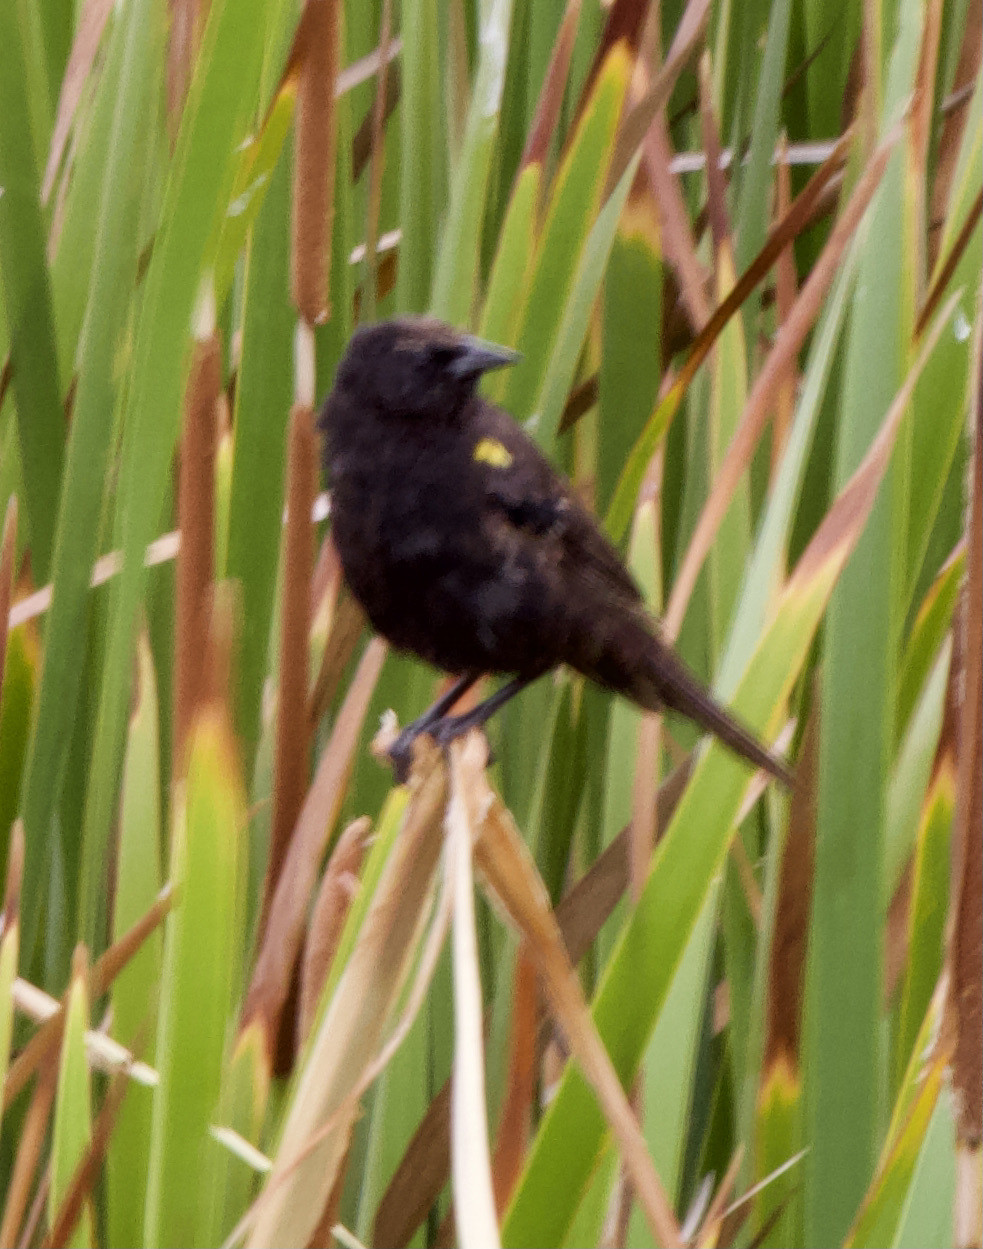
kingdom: Animalia
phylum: Chordata
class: Aves
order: Passeriformes
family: Icteridae
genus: Agelasticus
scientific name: Agelasticus thilius
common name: Yellow-winged blackbird
